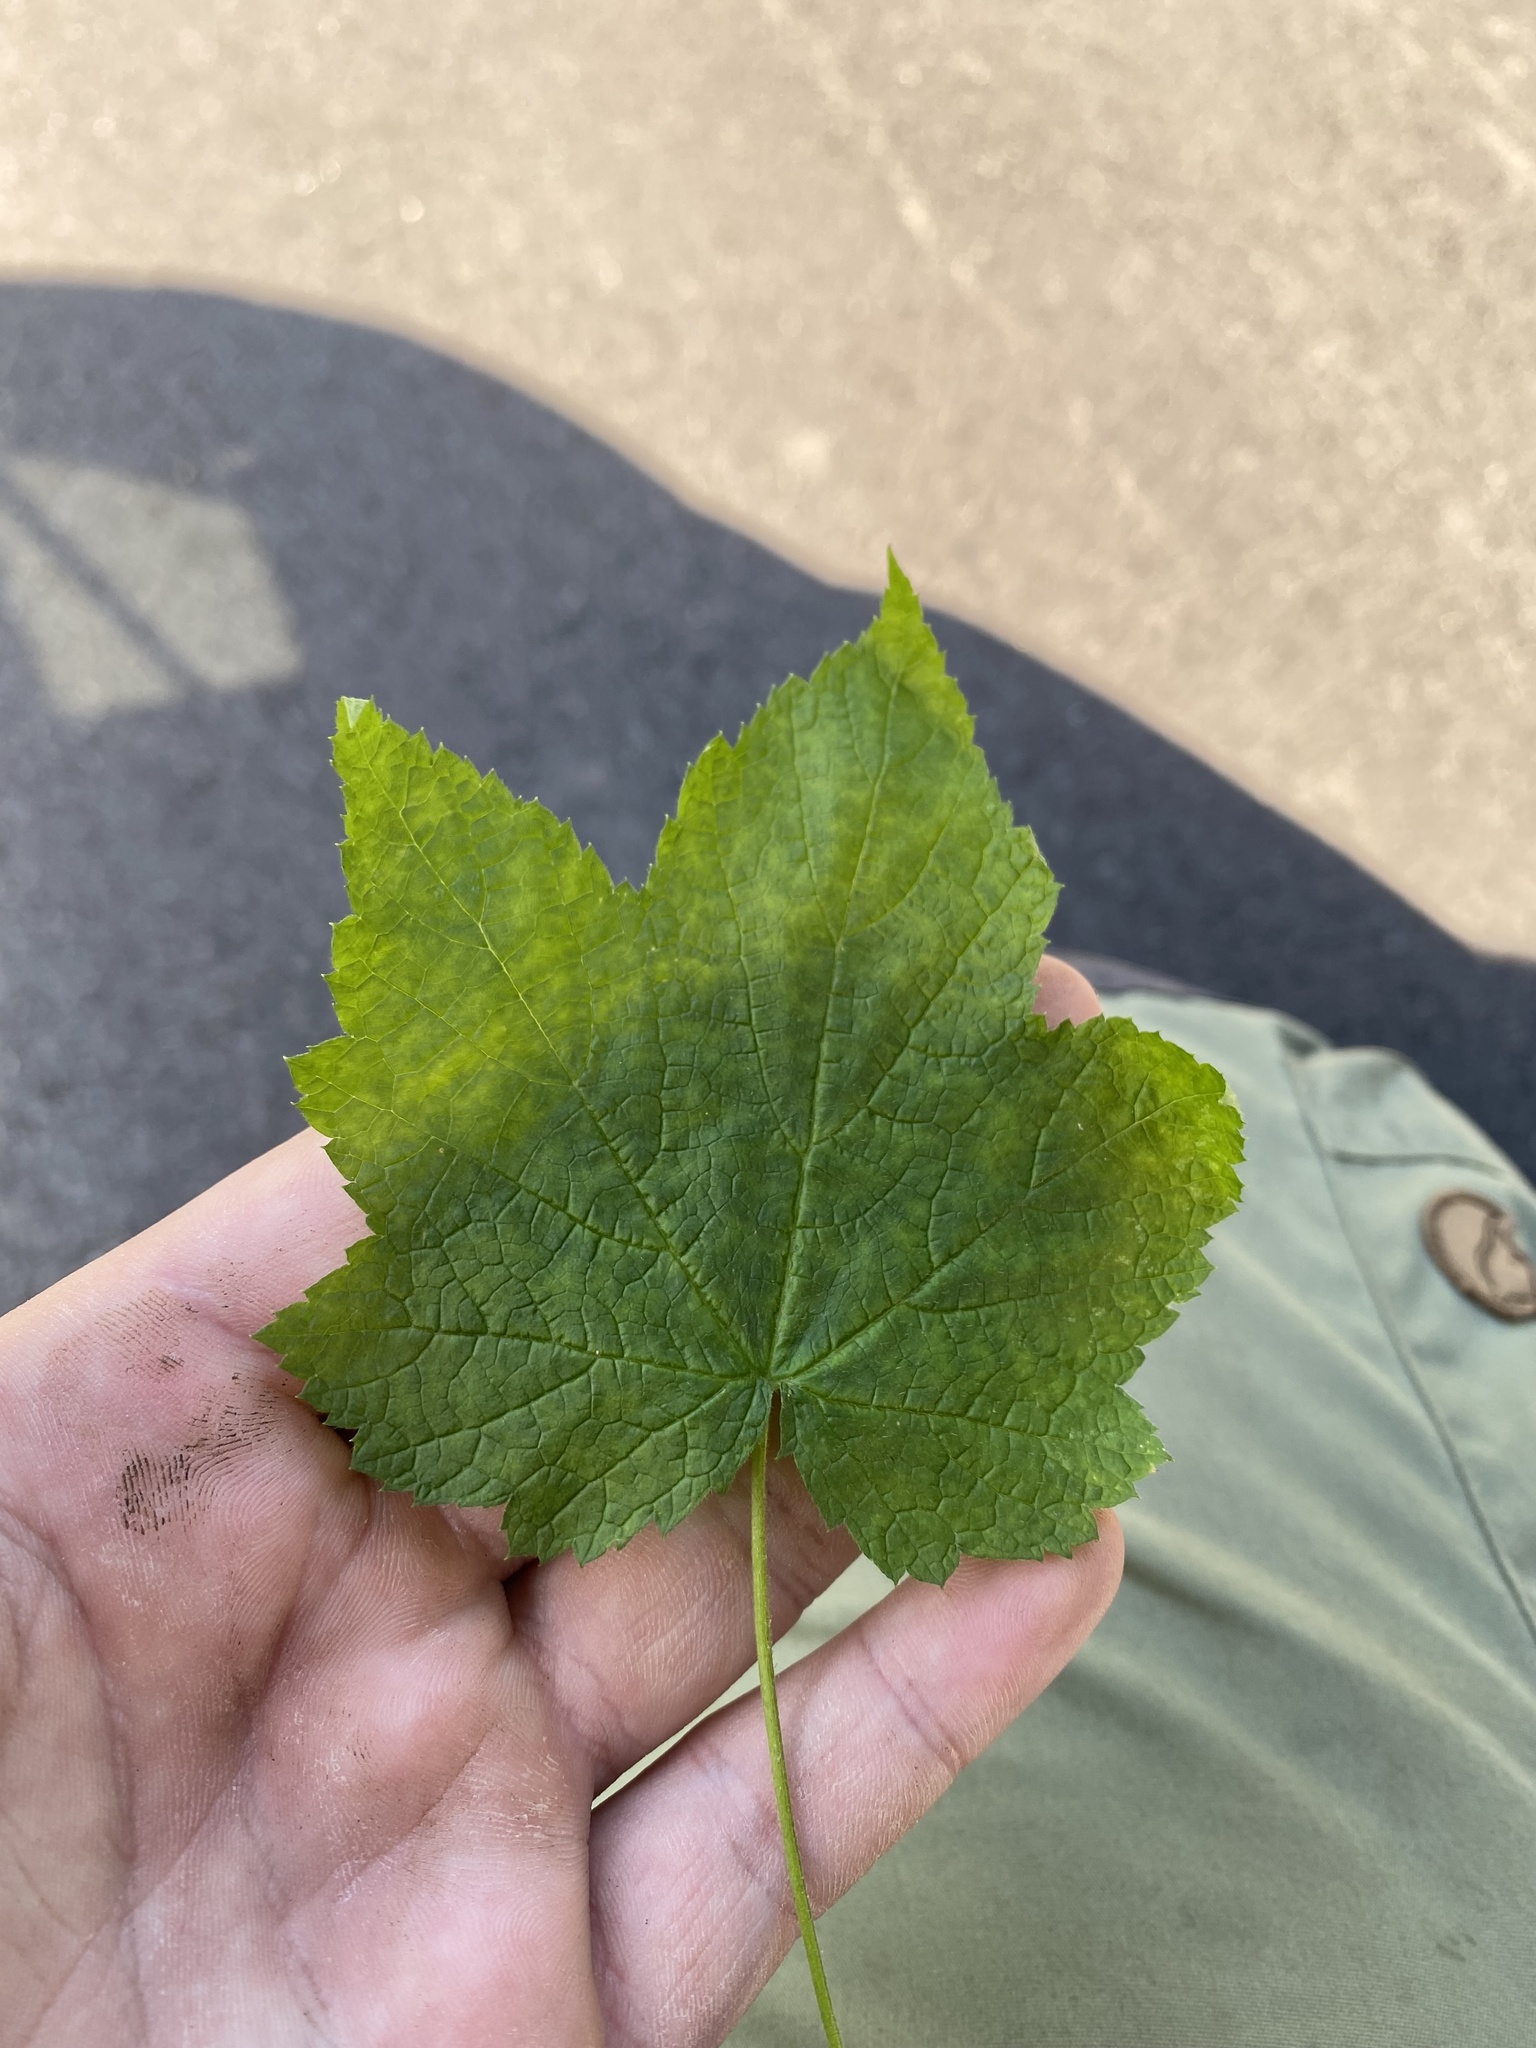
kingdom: Plantae
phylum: Tracheophyta
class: Magnoliopsida
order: Rosales
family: Rosaceae
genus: Rubus
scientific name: Rubus odoratus
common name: Purple-flowered raspberry
